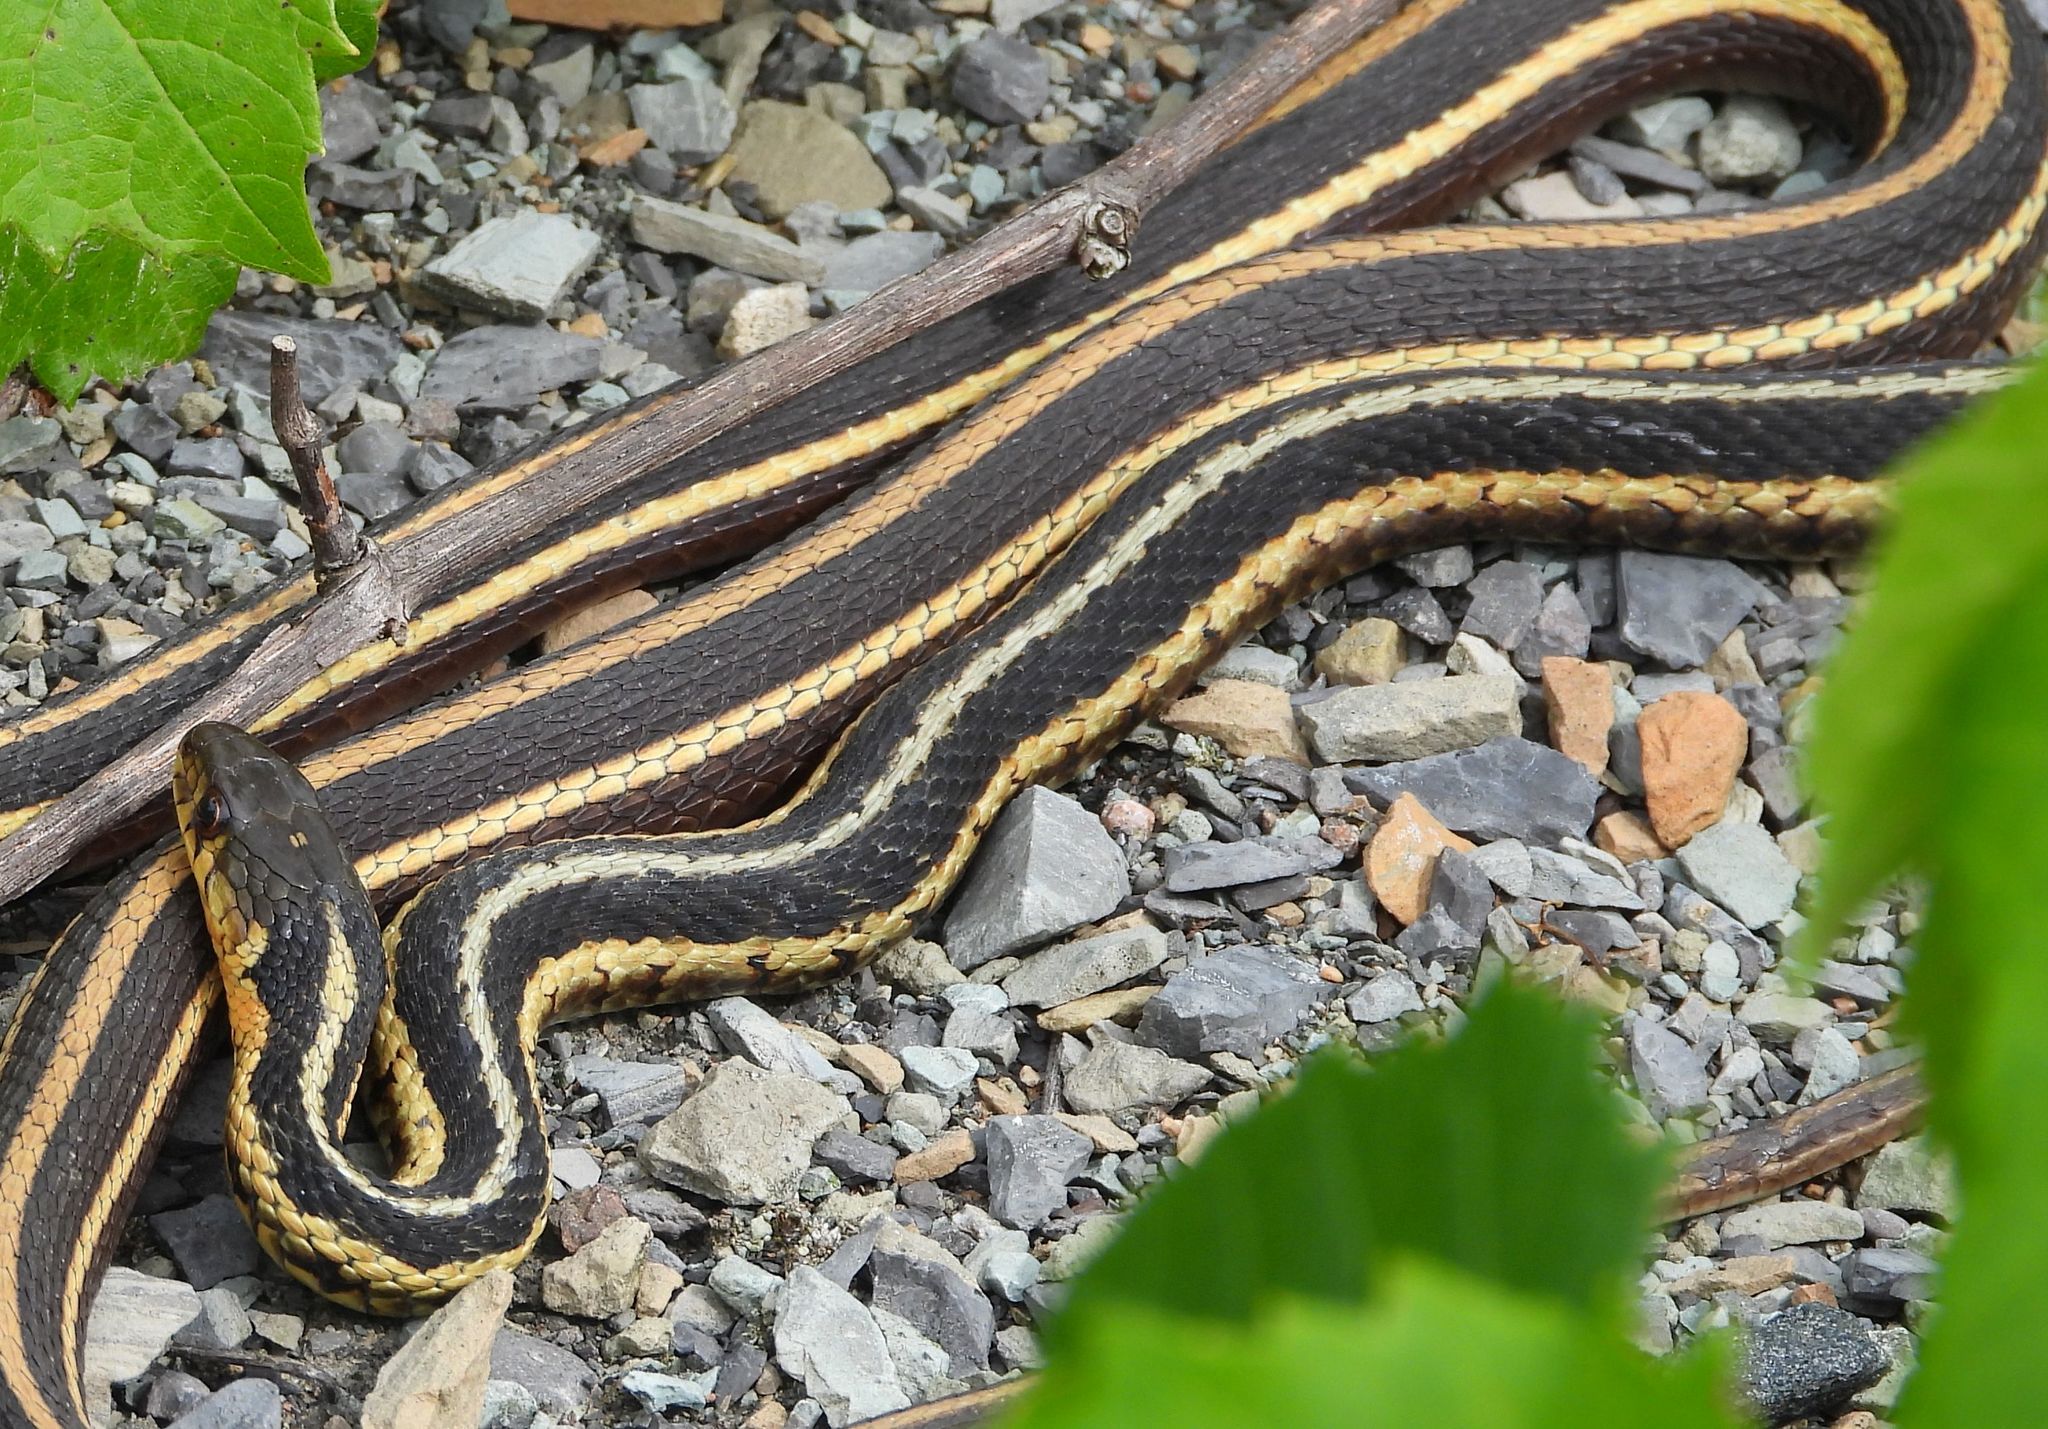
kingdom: Animalia
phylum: Chordata
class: Squamata
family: Colubridae
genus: Thamnophis
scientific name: Thamnophis sirtalis
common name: Common garter snake
